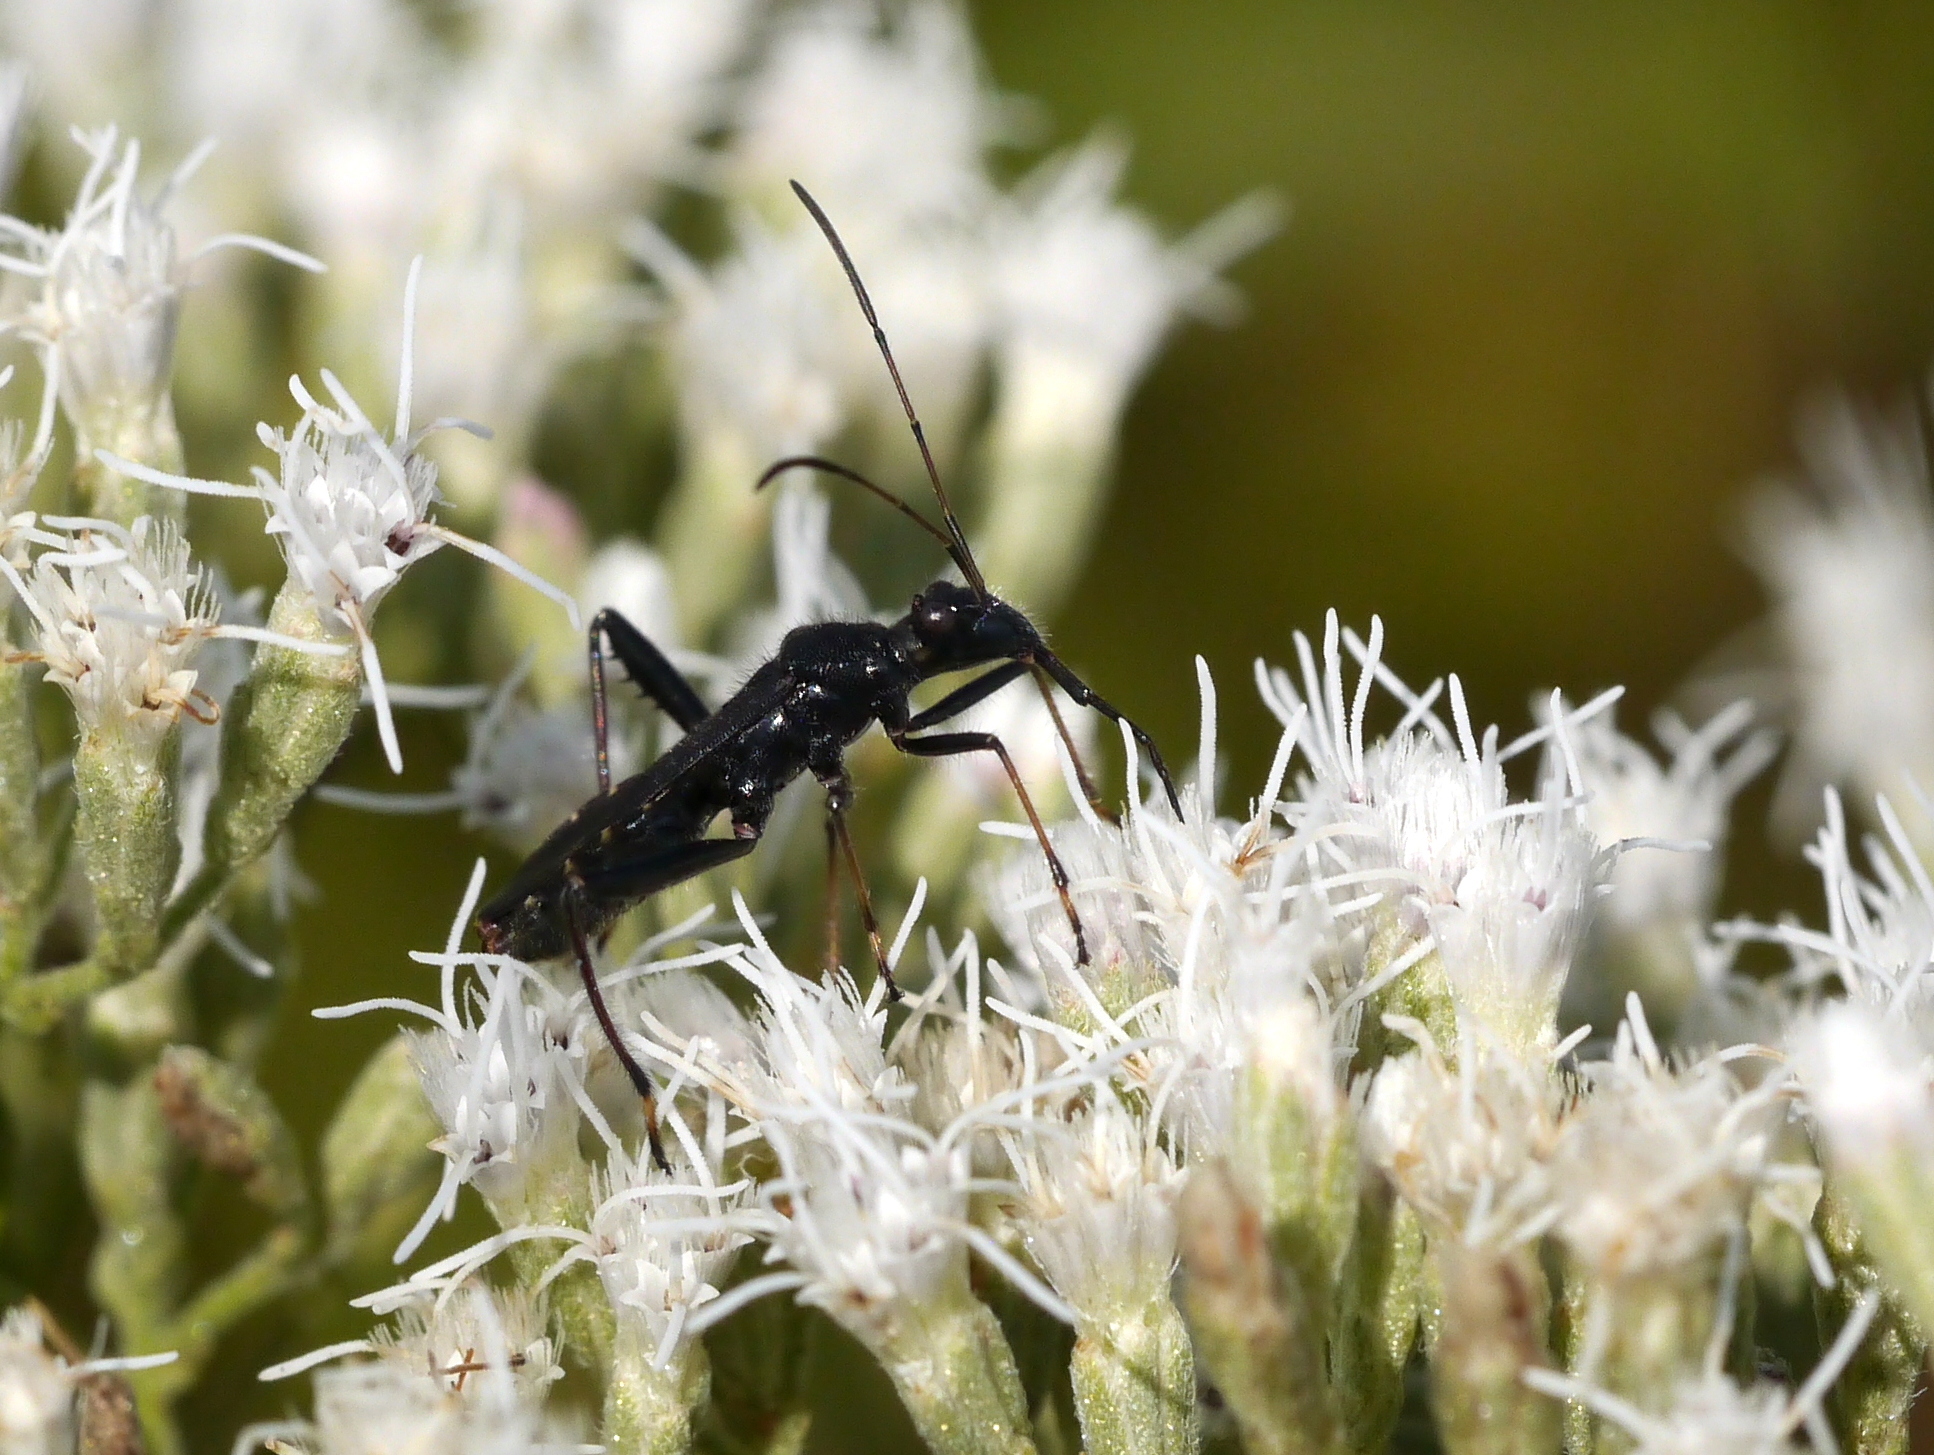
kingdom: Animalia
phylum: Arthropoda
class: Insecta
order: Hemiptera
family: Alydidae
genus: Alydus
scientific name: Alydus eurinus
